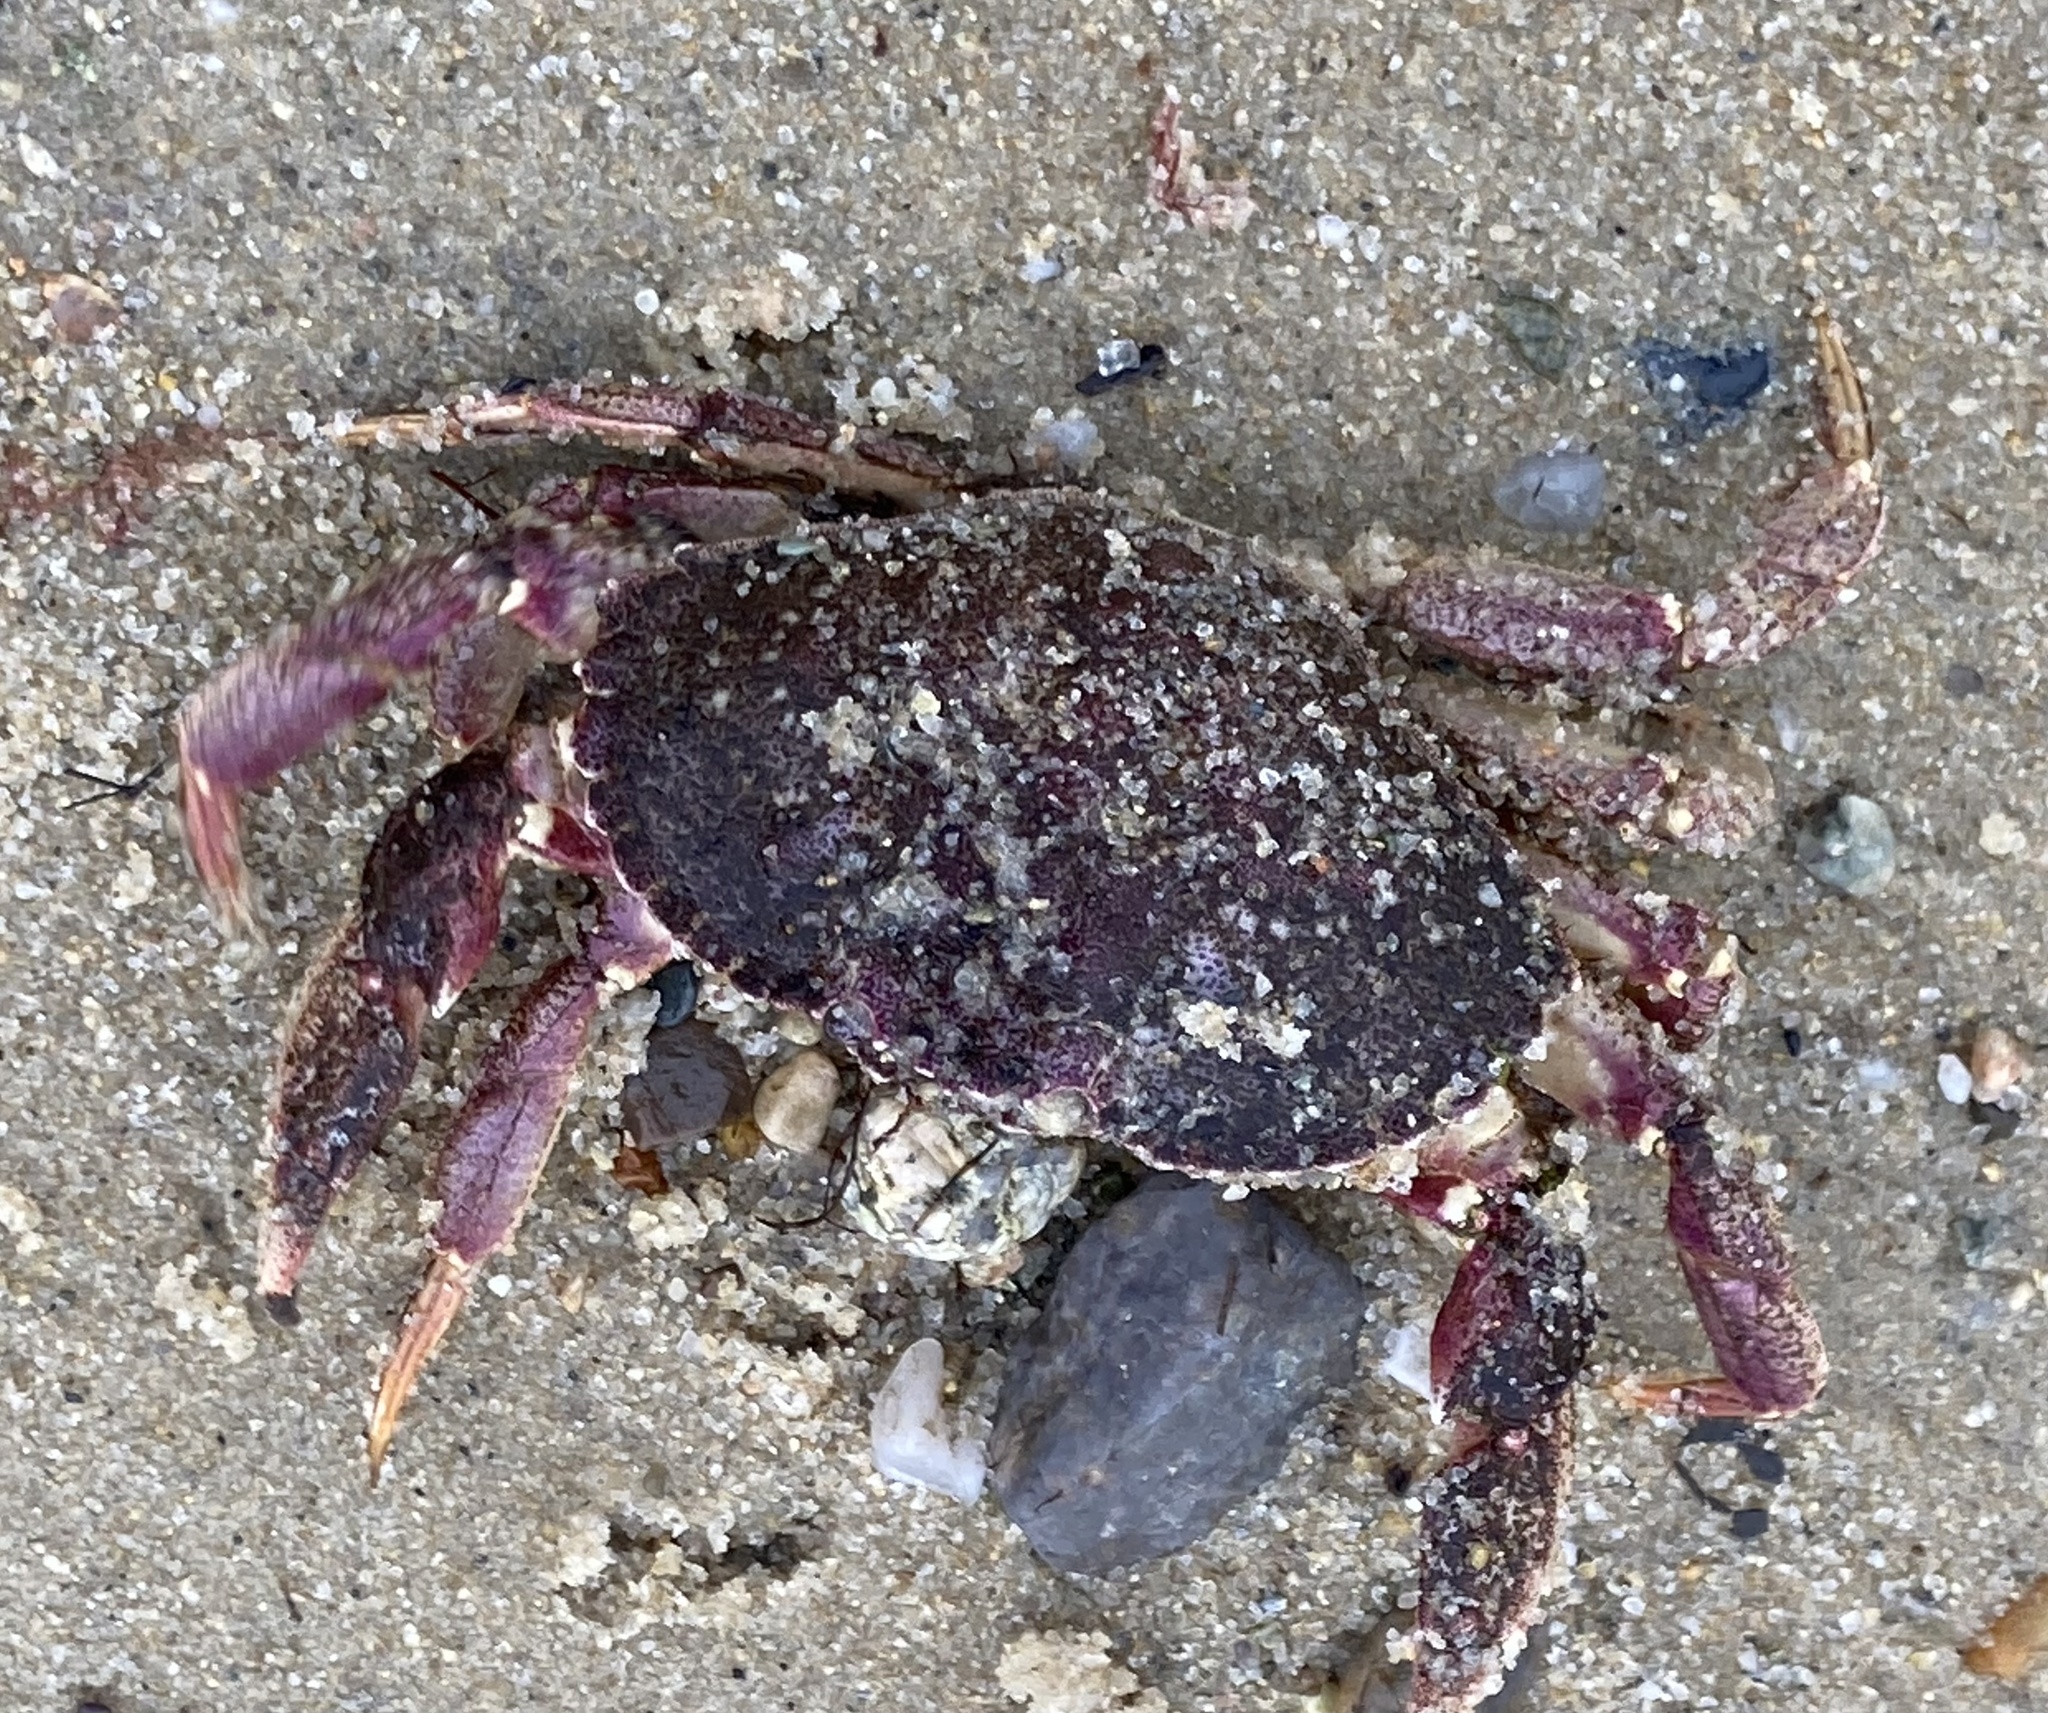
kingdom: Animalia
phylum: Arthropoda
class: Malacostraca
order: Decapoda
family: Cancridae
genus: Cancer
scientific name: Cancer irroratus
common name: Atlantic rock crab
